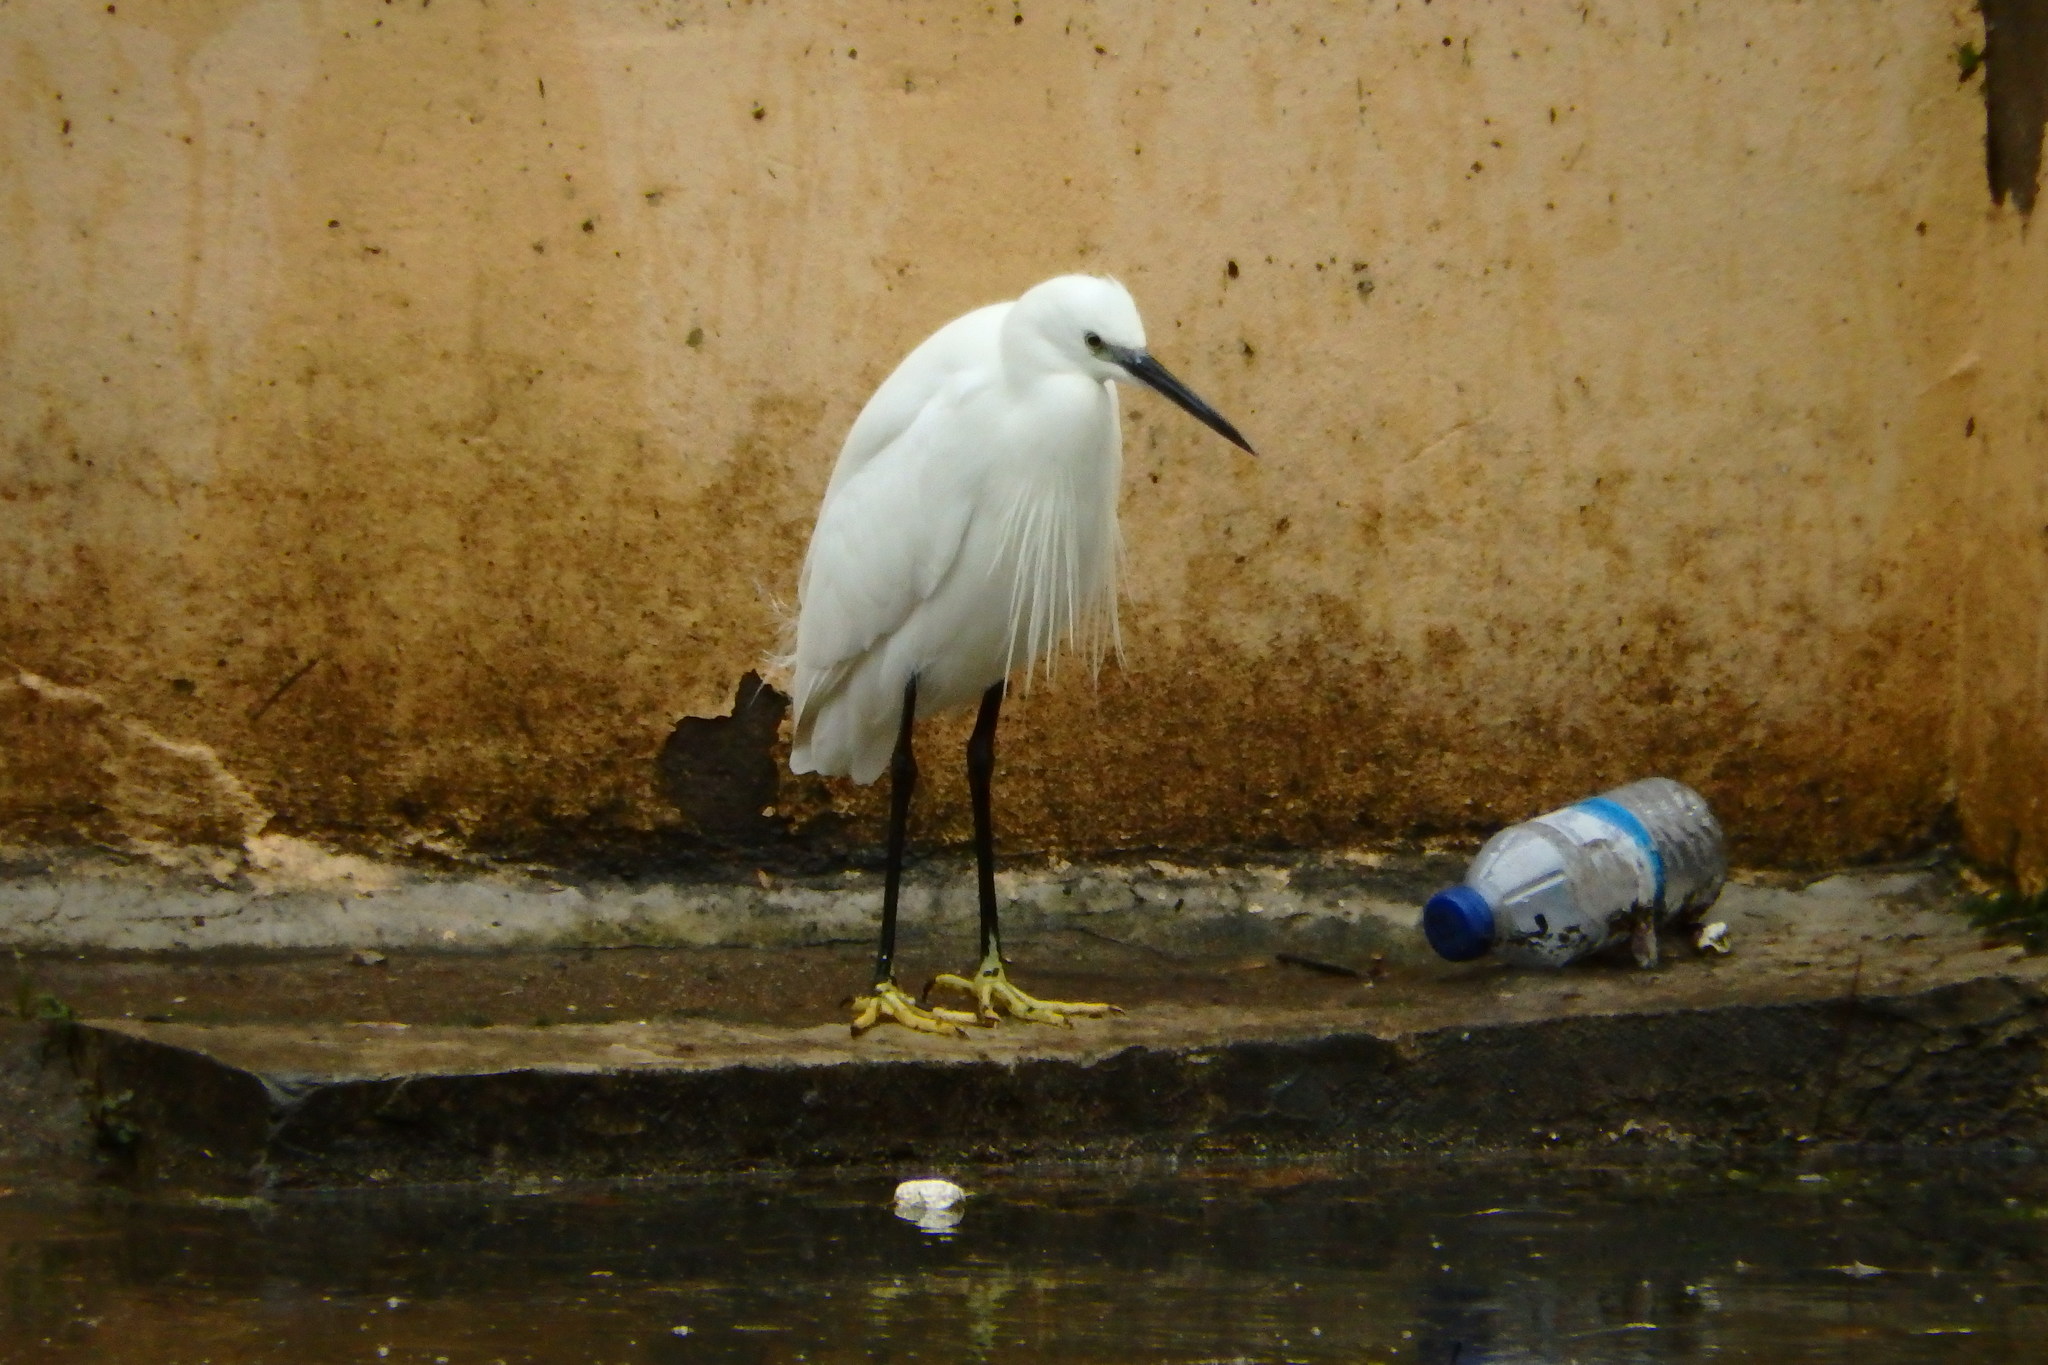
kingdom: Animalia
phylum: Chordata
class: Aves
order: Pelecaniformes
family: Ardeidae
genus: Egretta
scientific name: Egretta garzetta
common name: Little egret
